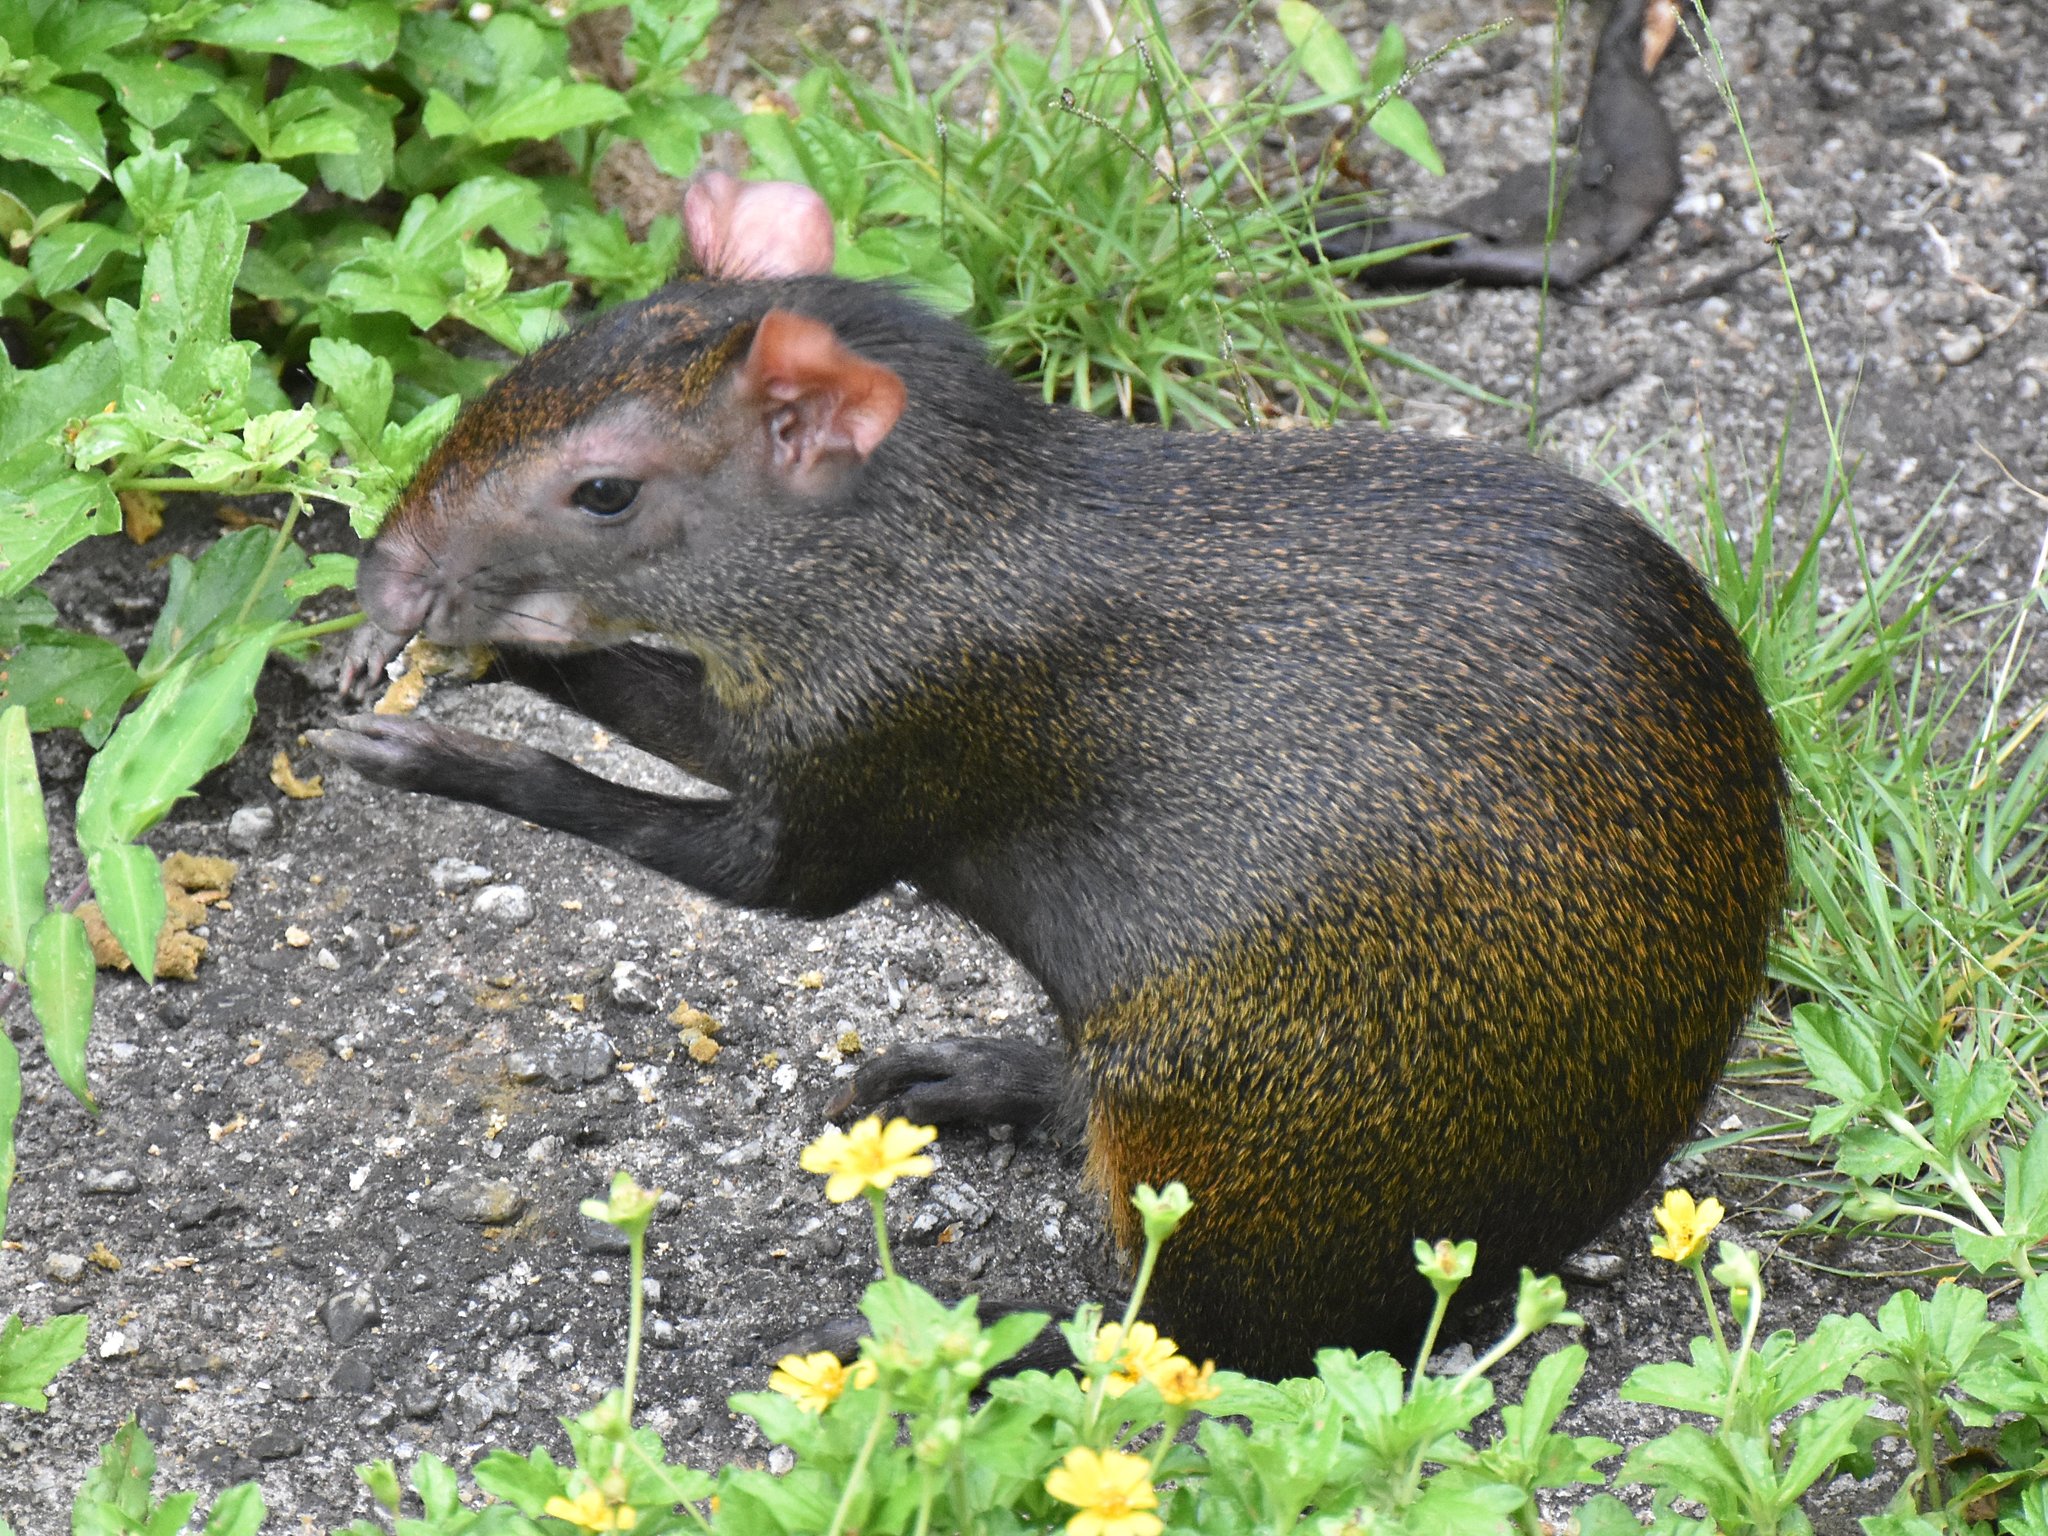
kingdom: Animalia
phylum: Chordata
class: Mammalia
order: Rodentia
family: Dasyproctidae
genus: Dasyprocta
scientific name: Dasyprocta leporina
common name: Red-rumped agouti
